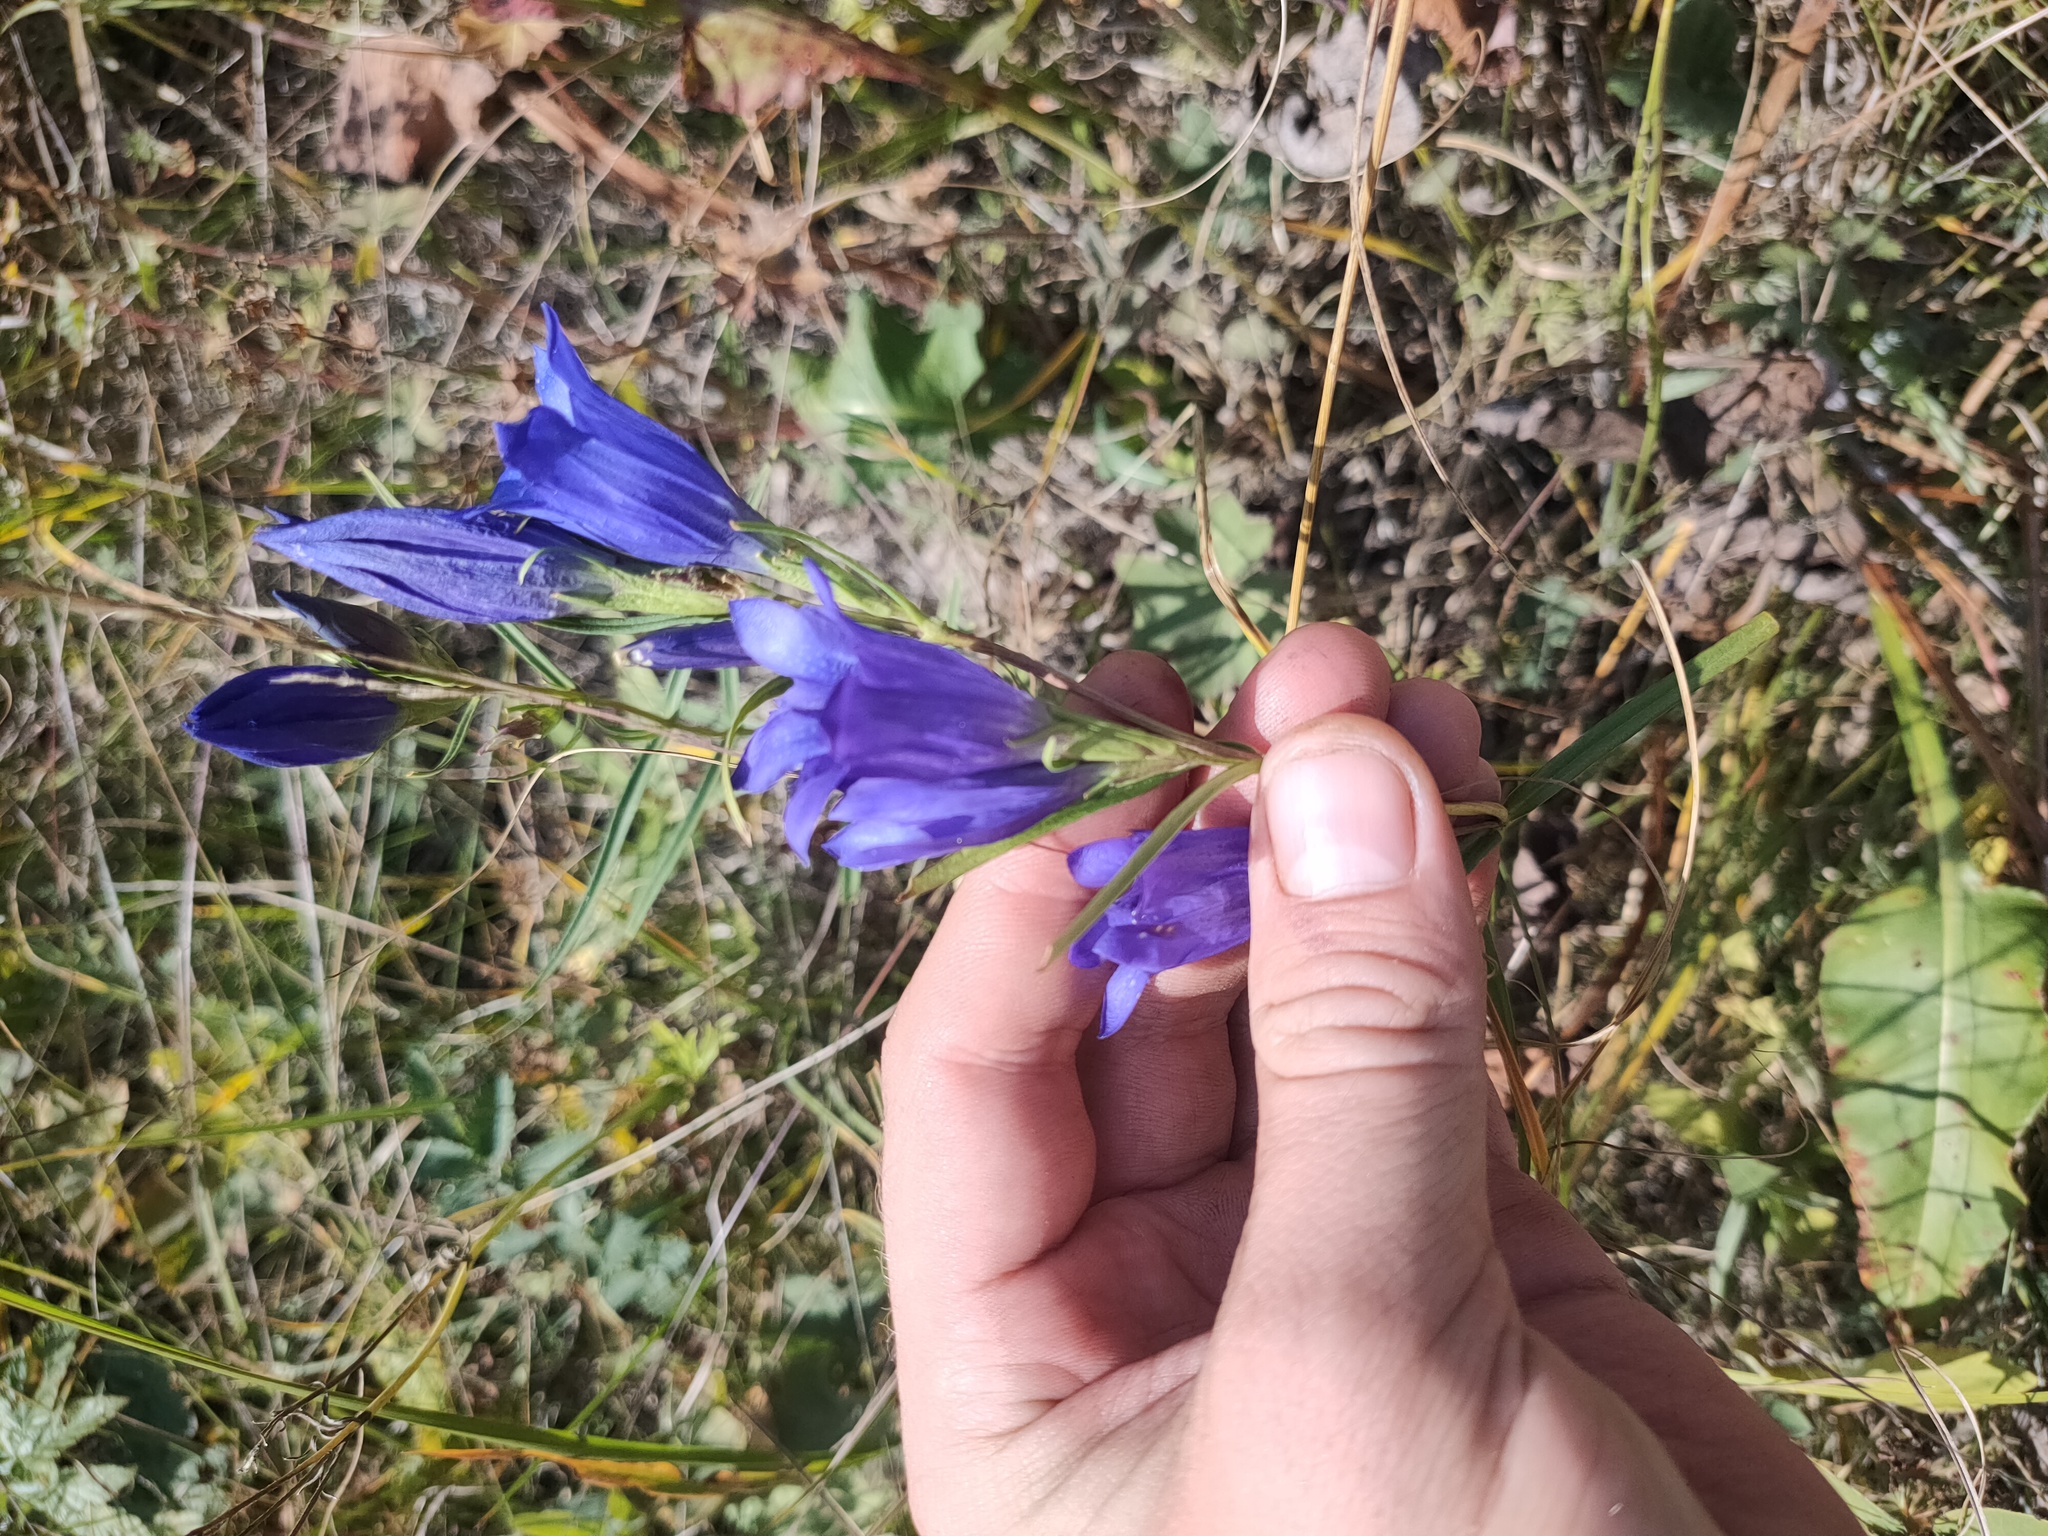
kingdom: Plantae
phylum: Tracheophyta
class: Magnoliopsida
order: Gentianales
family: Gentianaceae
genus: Gentiana
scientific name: Gentiana pneumonanthe
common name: Marsh gentian
